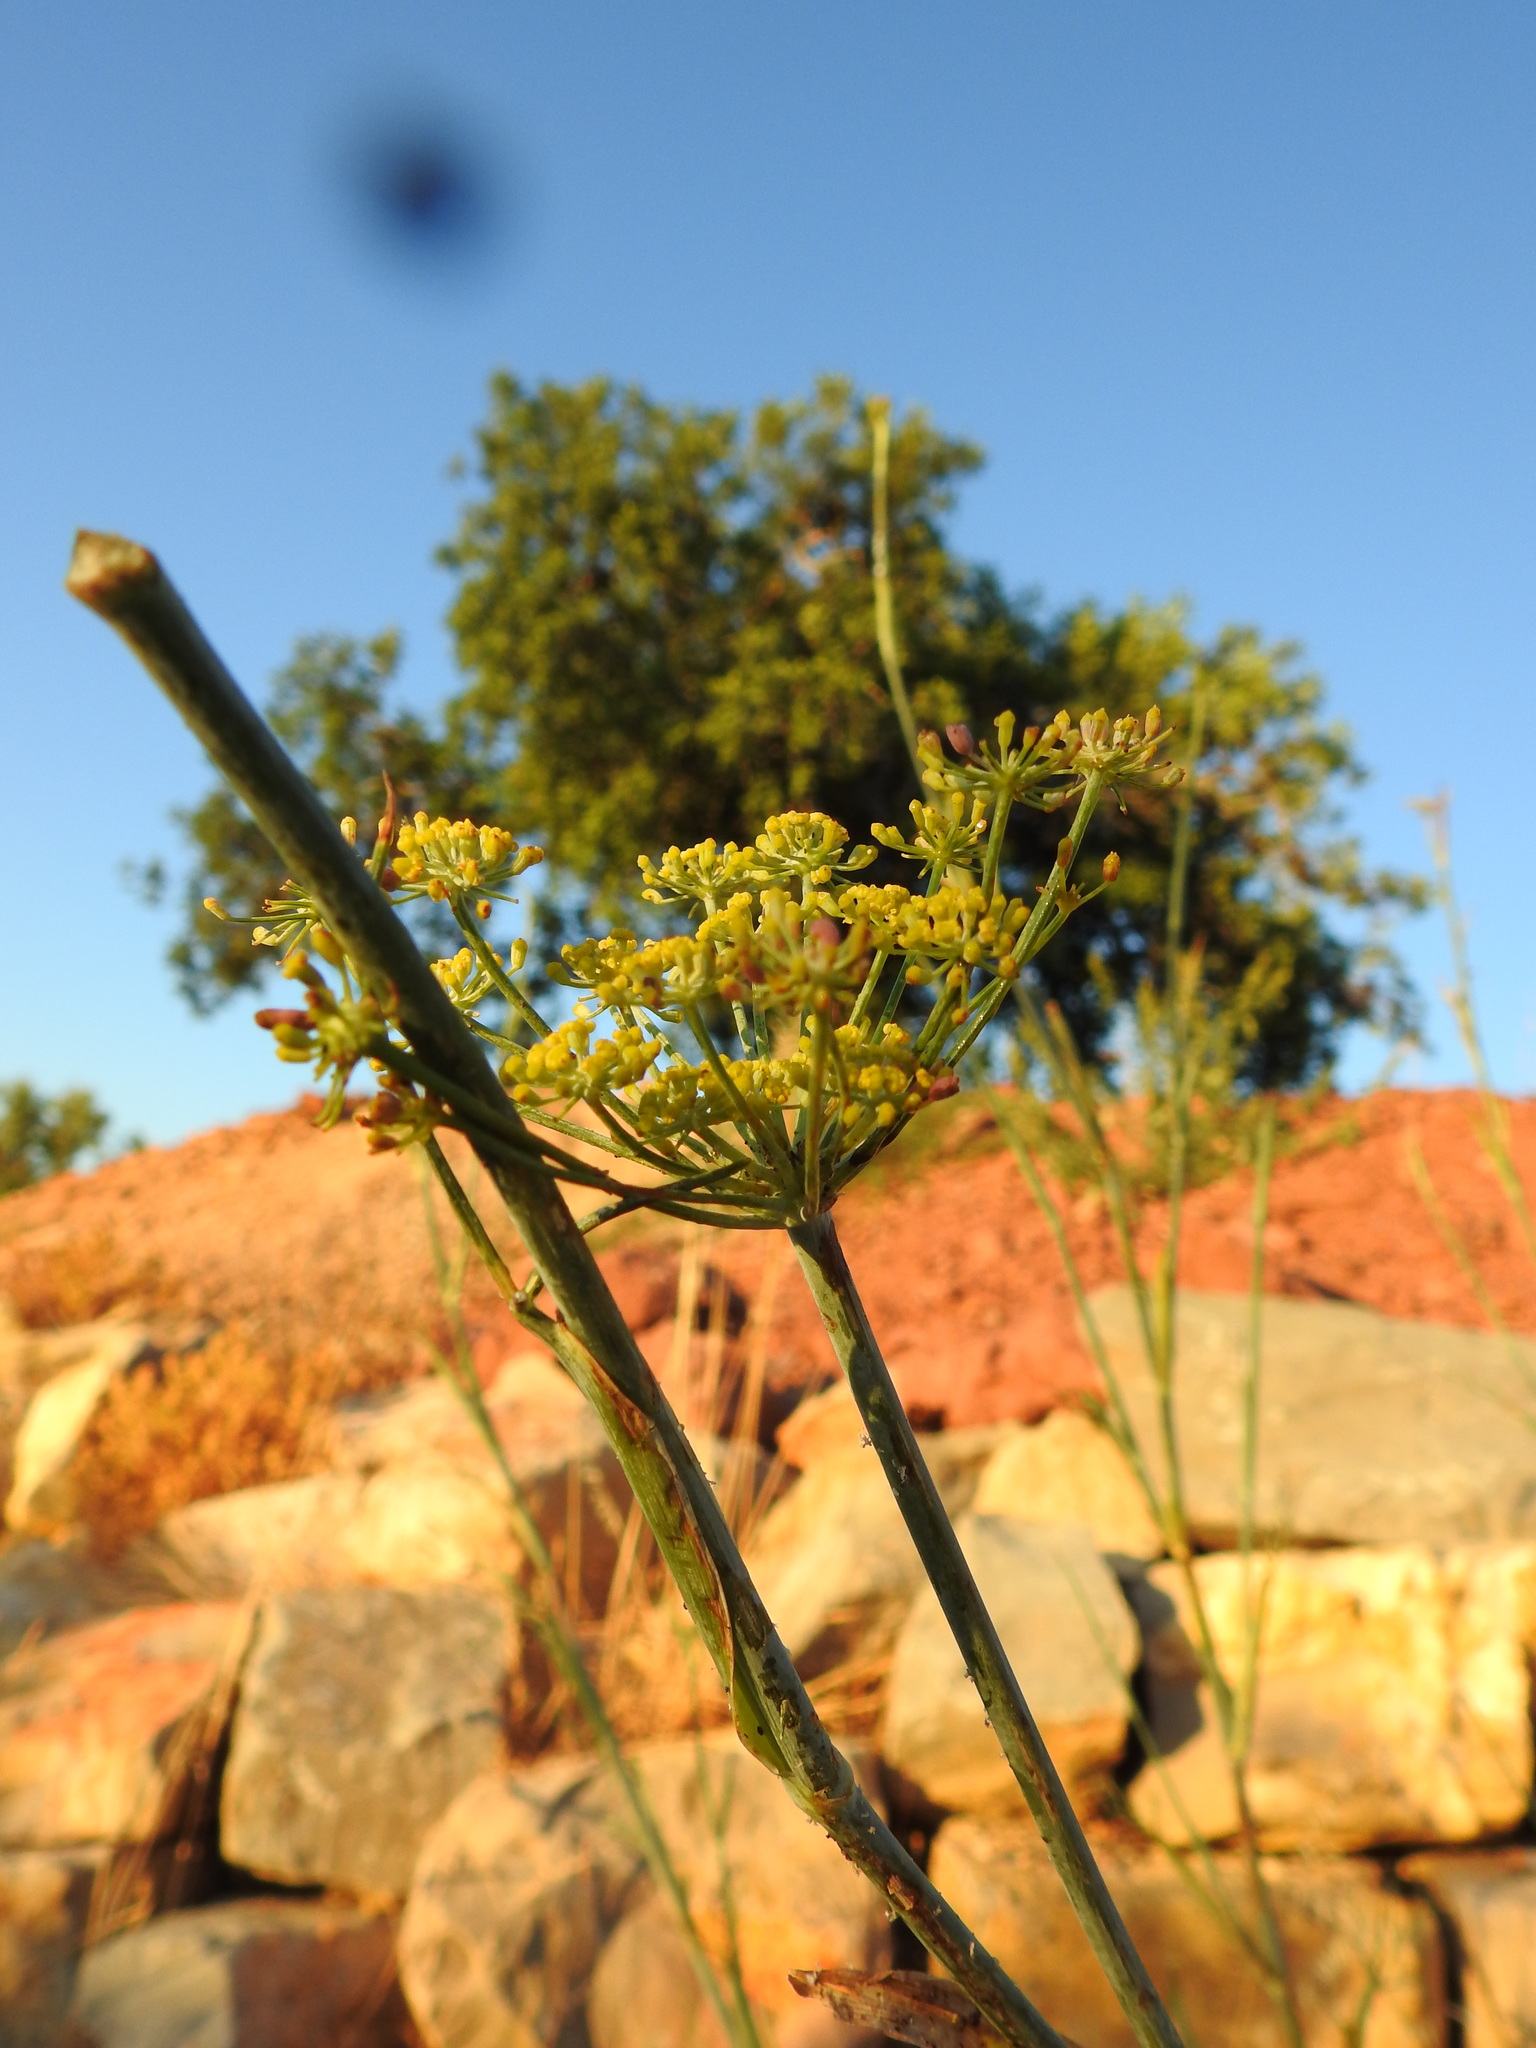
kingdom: Plantae
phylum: Tracheophyta
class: Magnoliopsida
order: Apiales
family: Apiaceae
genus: Foeniculum
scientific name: Foeniculum vulgare
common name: Fennel
